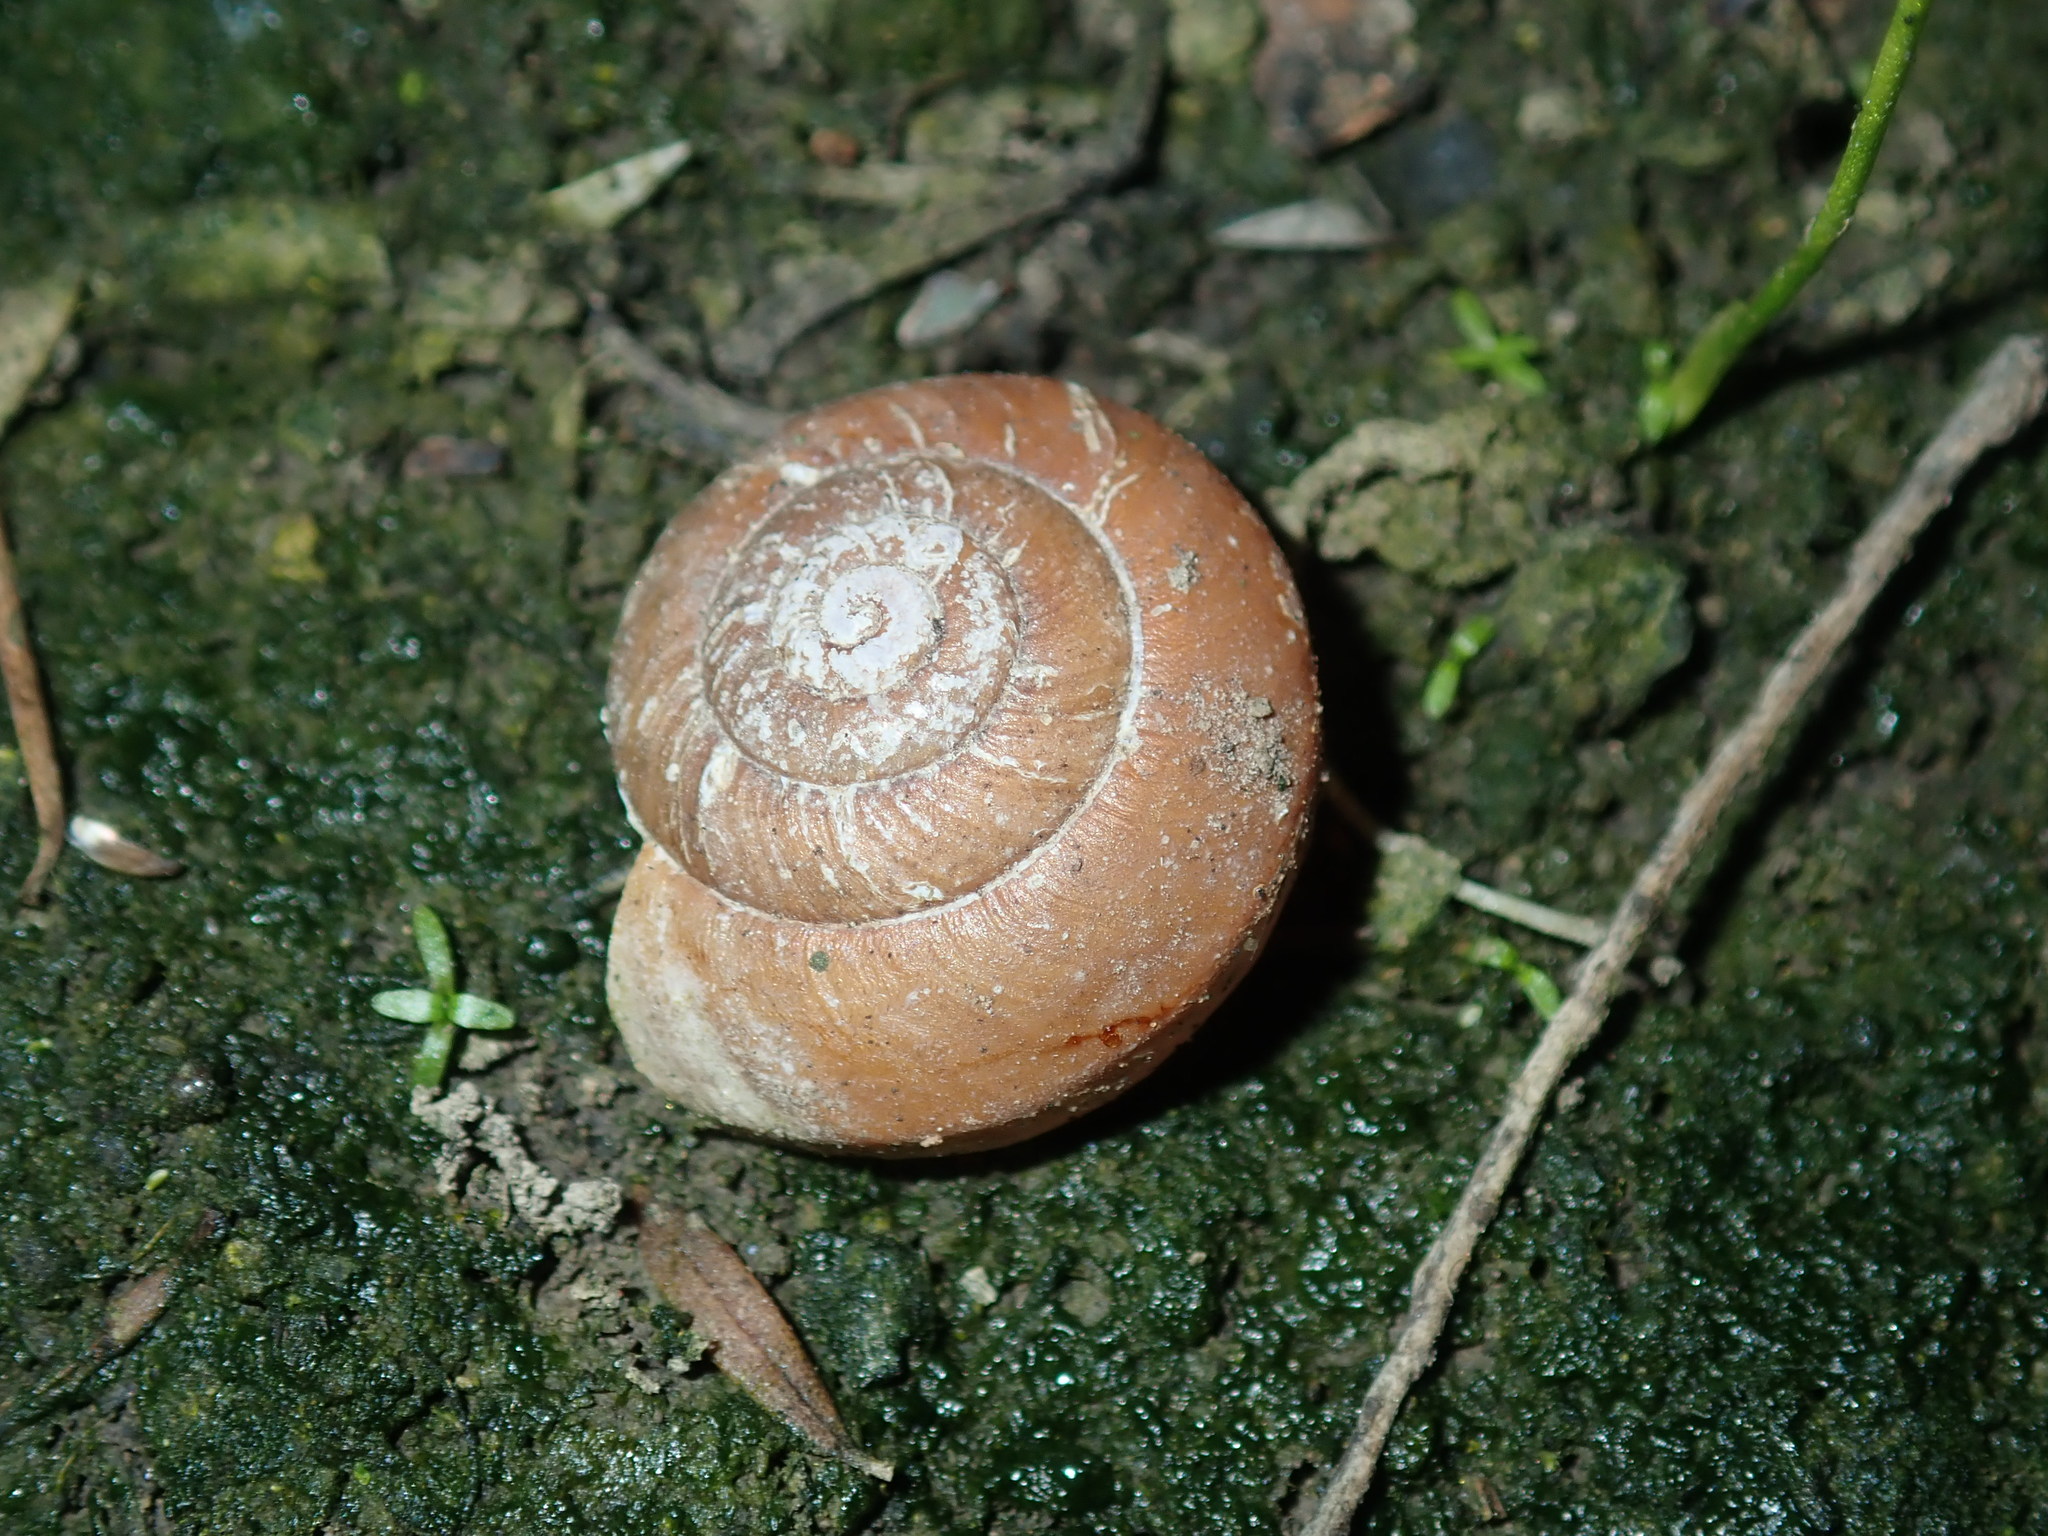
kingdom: Animalia
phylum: Mollusca
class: Gastropoda
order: Stylommatophora
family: Camaenidae
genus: Sauroconcha
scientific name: Sauroconcha sheai
